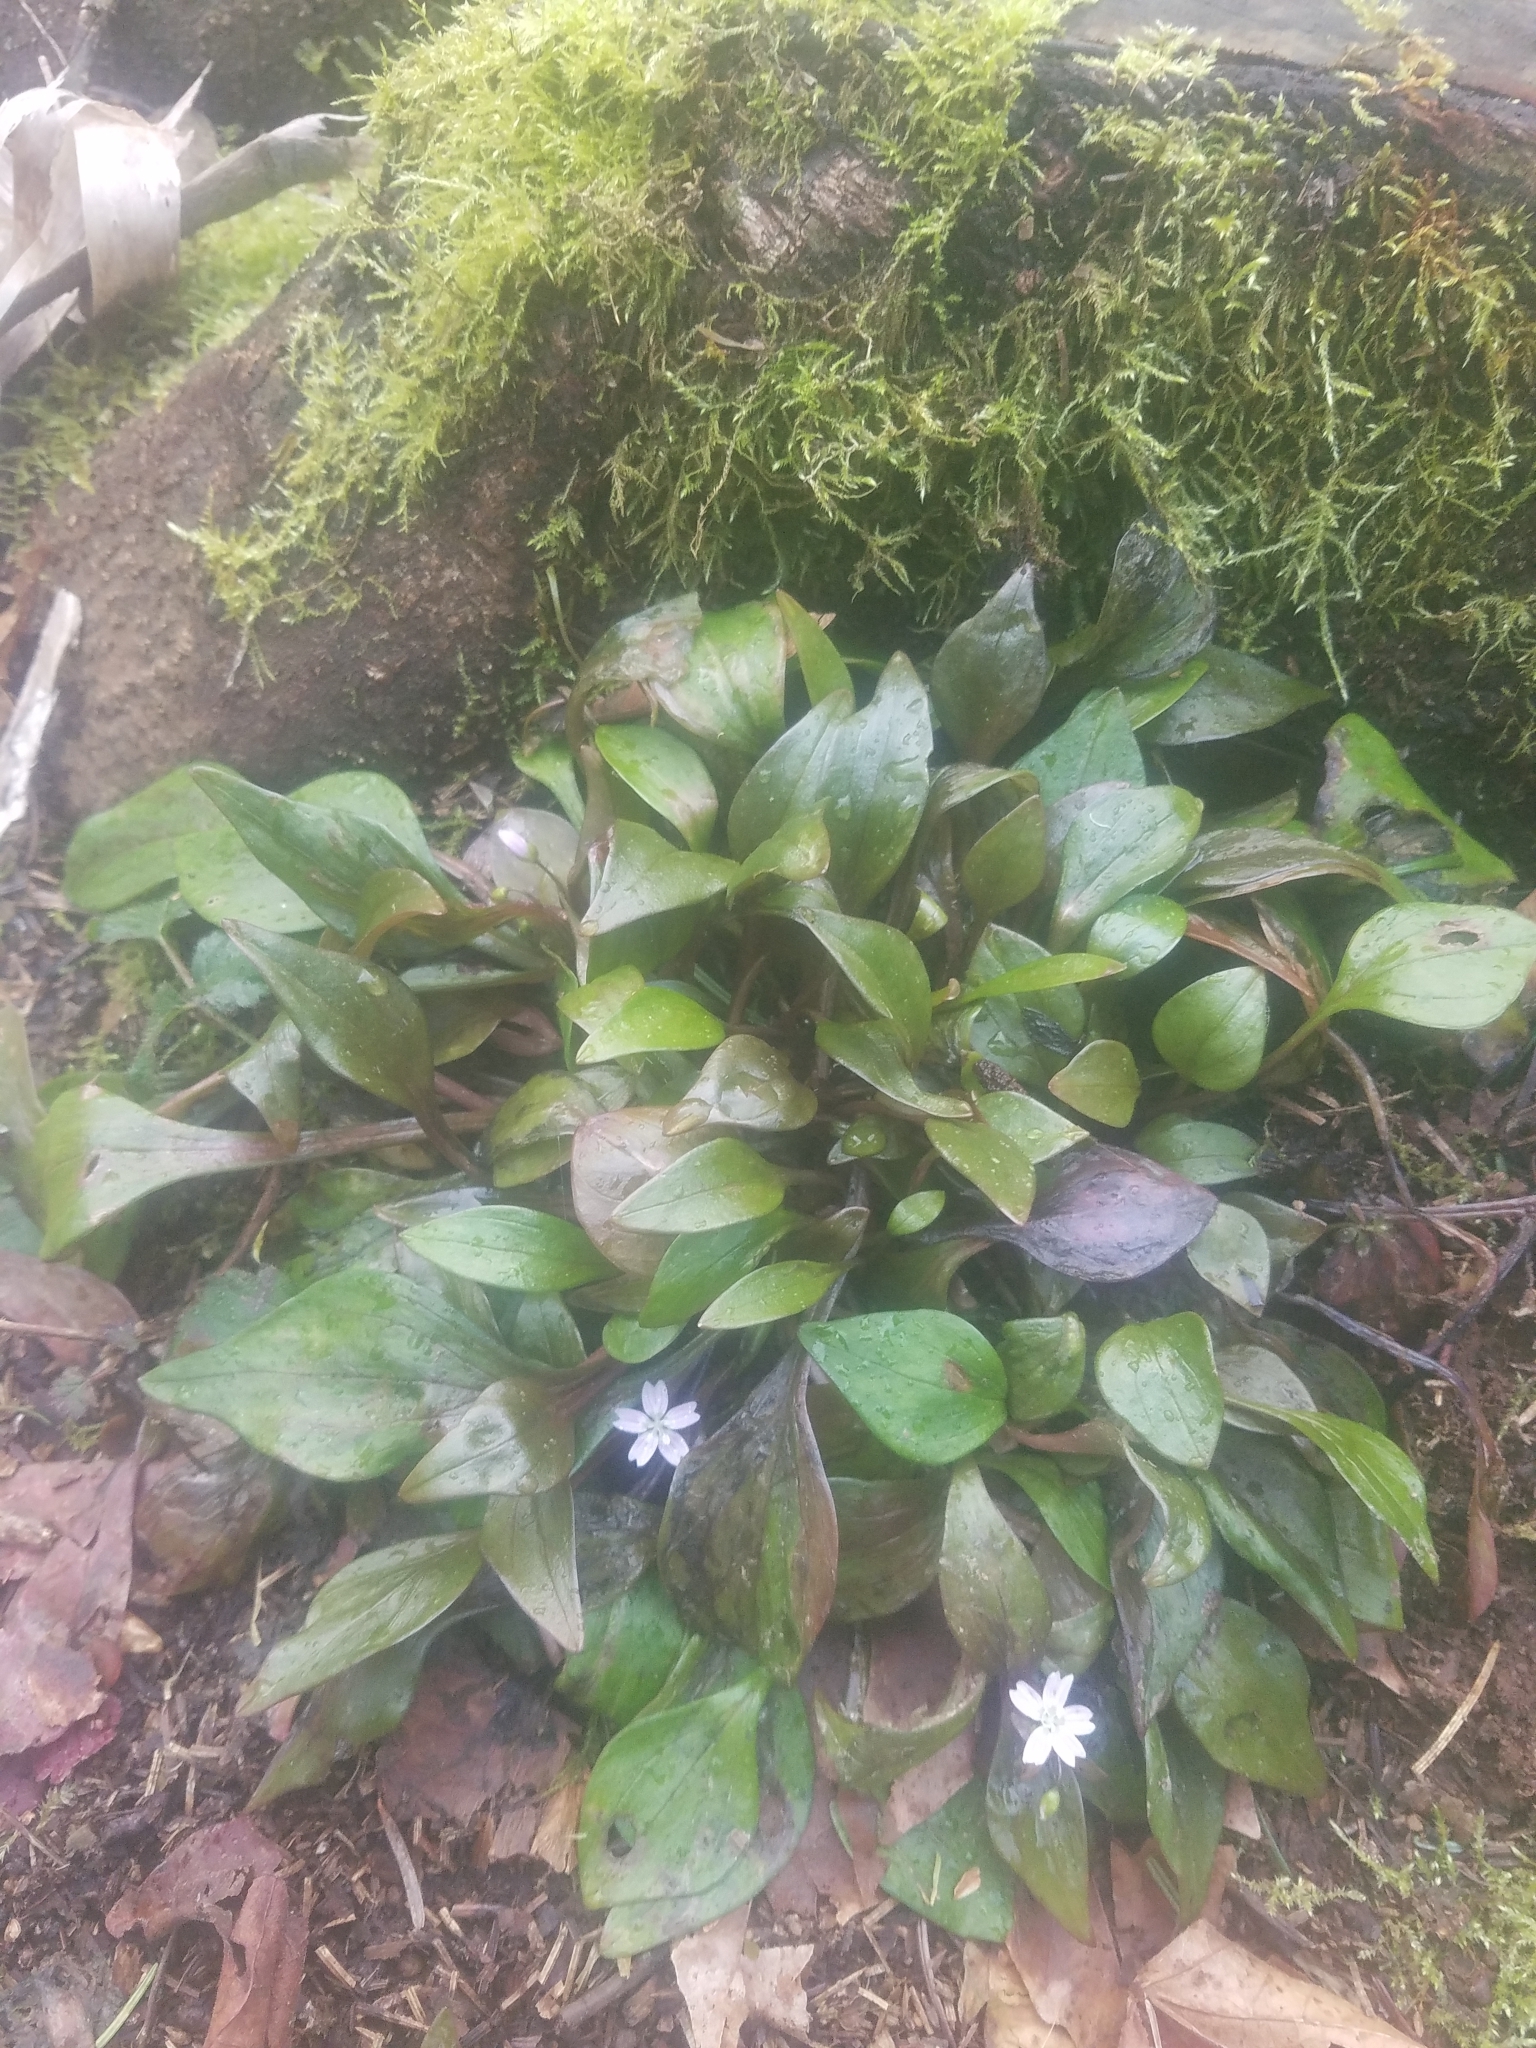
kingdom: Plantae
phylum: Tracheophyta
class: Magnoliopsida
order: Caryophyllales
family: Montiaceae
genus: Claytonia
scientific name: Claytonia sibirica
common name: Pink purslane
